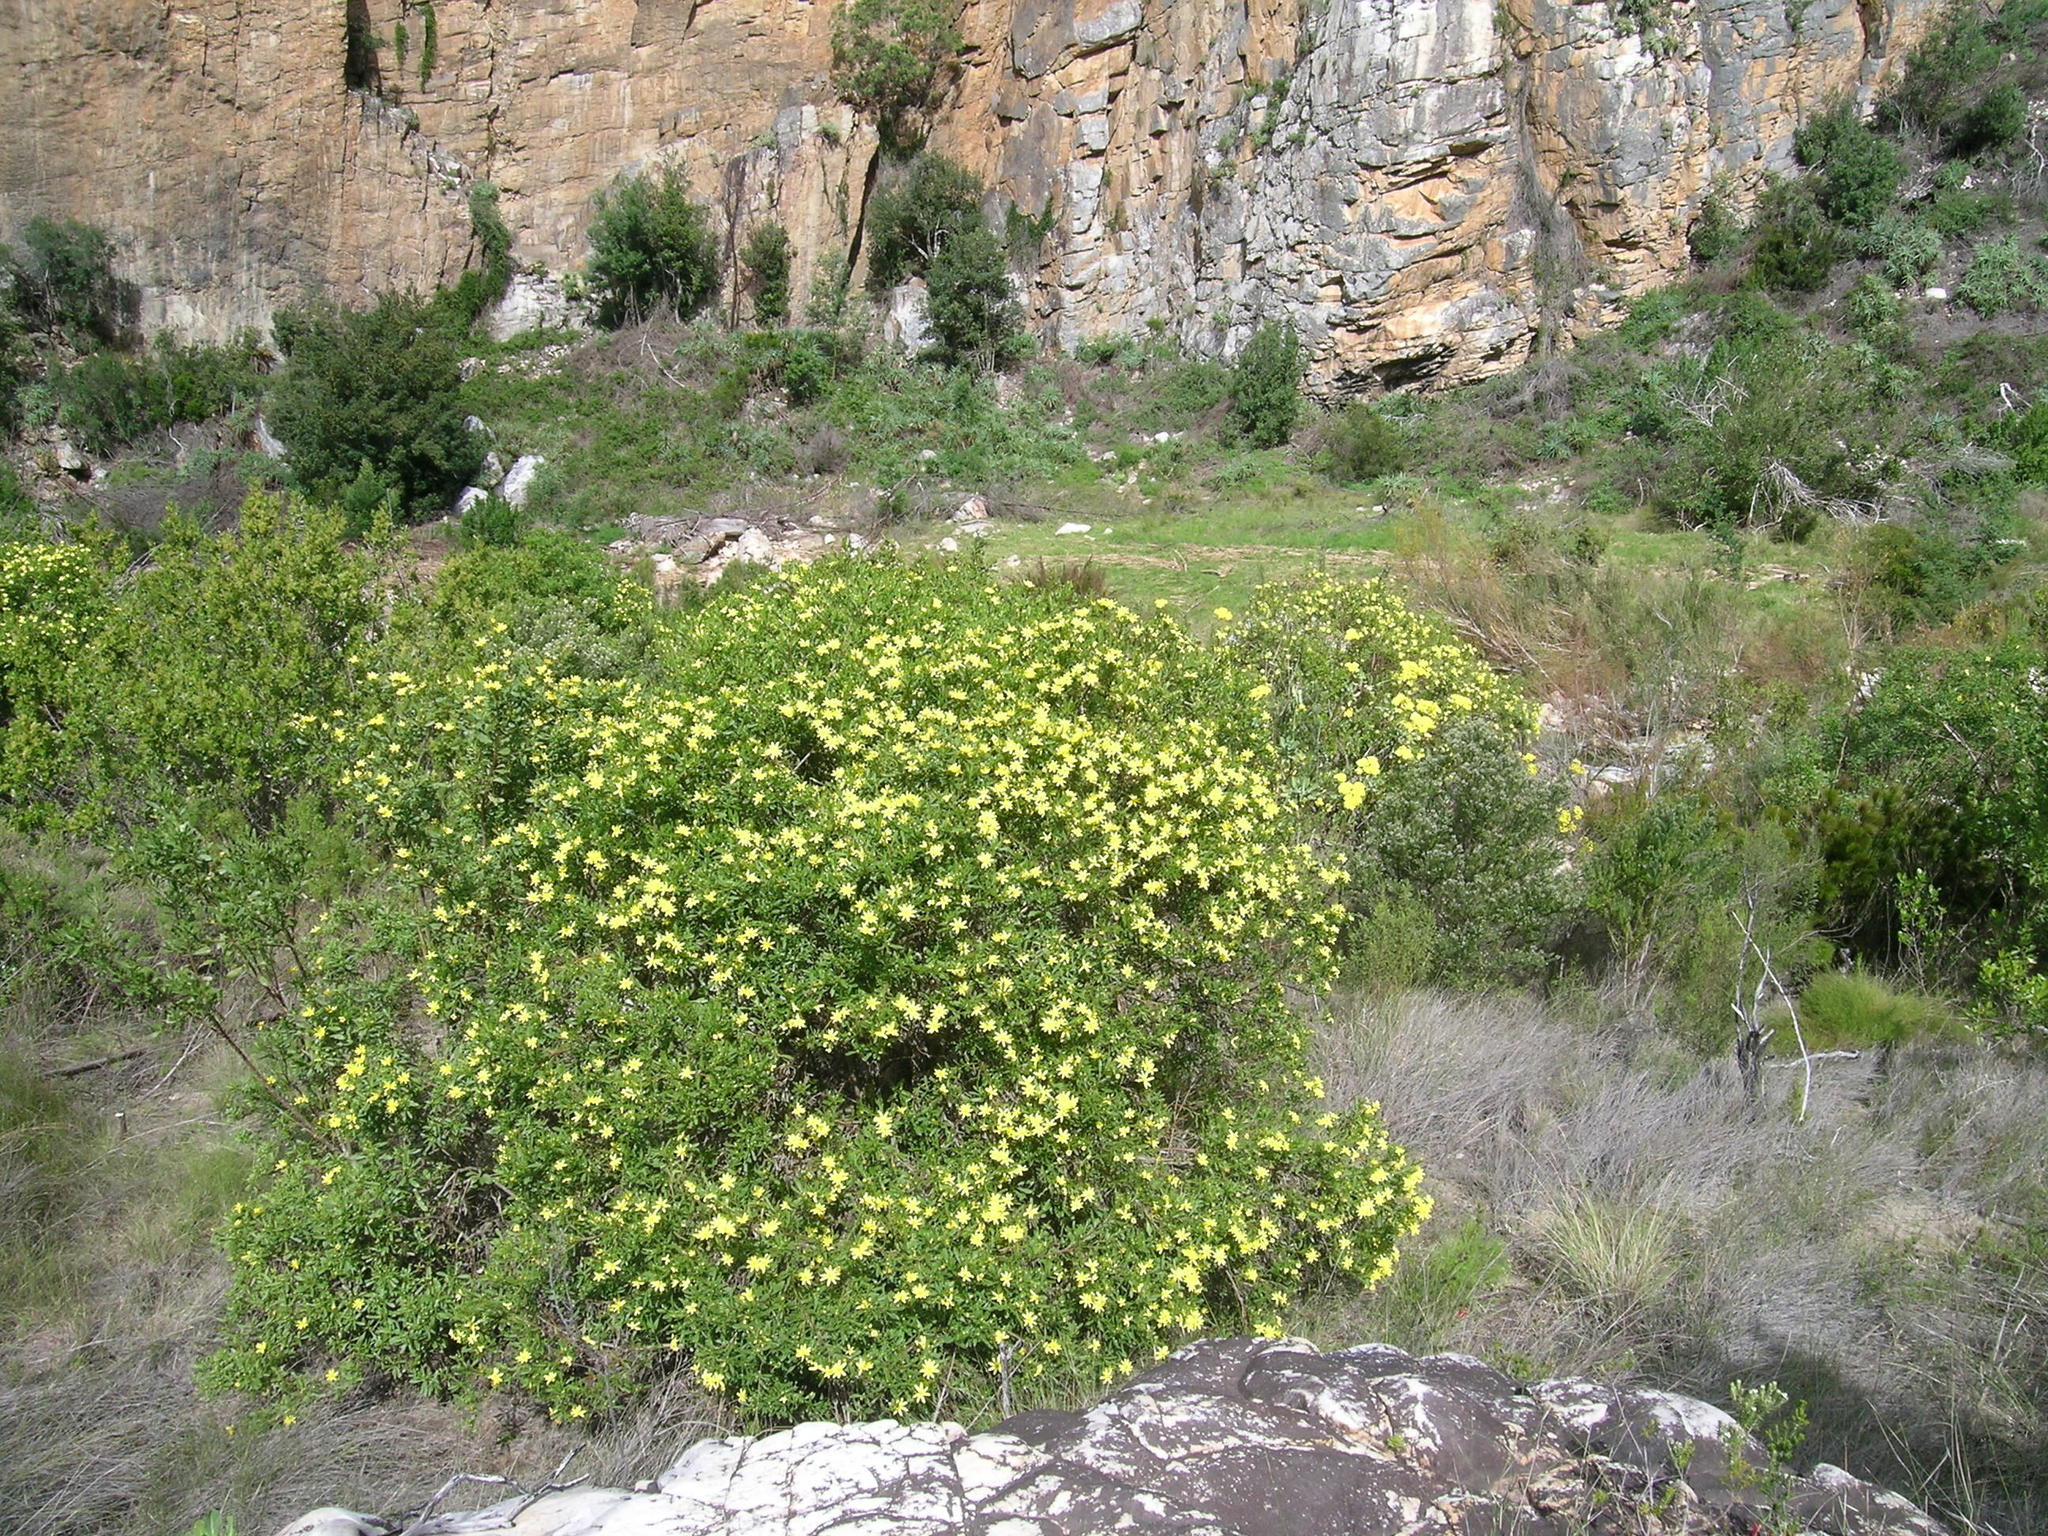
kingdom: Plantae
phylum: Tracheophyta
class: Magnoliopsida
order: Asterales
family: Asteraceae
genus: Osteospermum
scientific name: Osteospermum moniliferum
